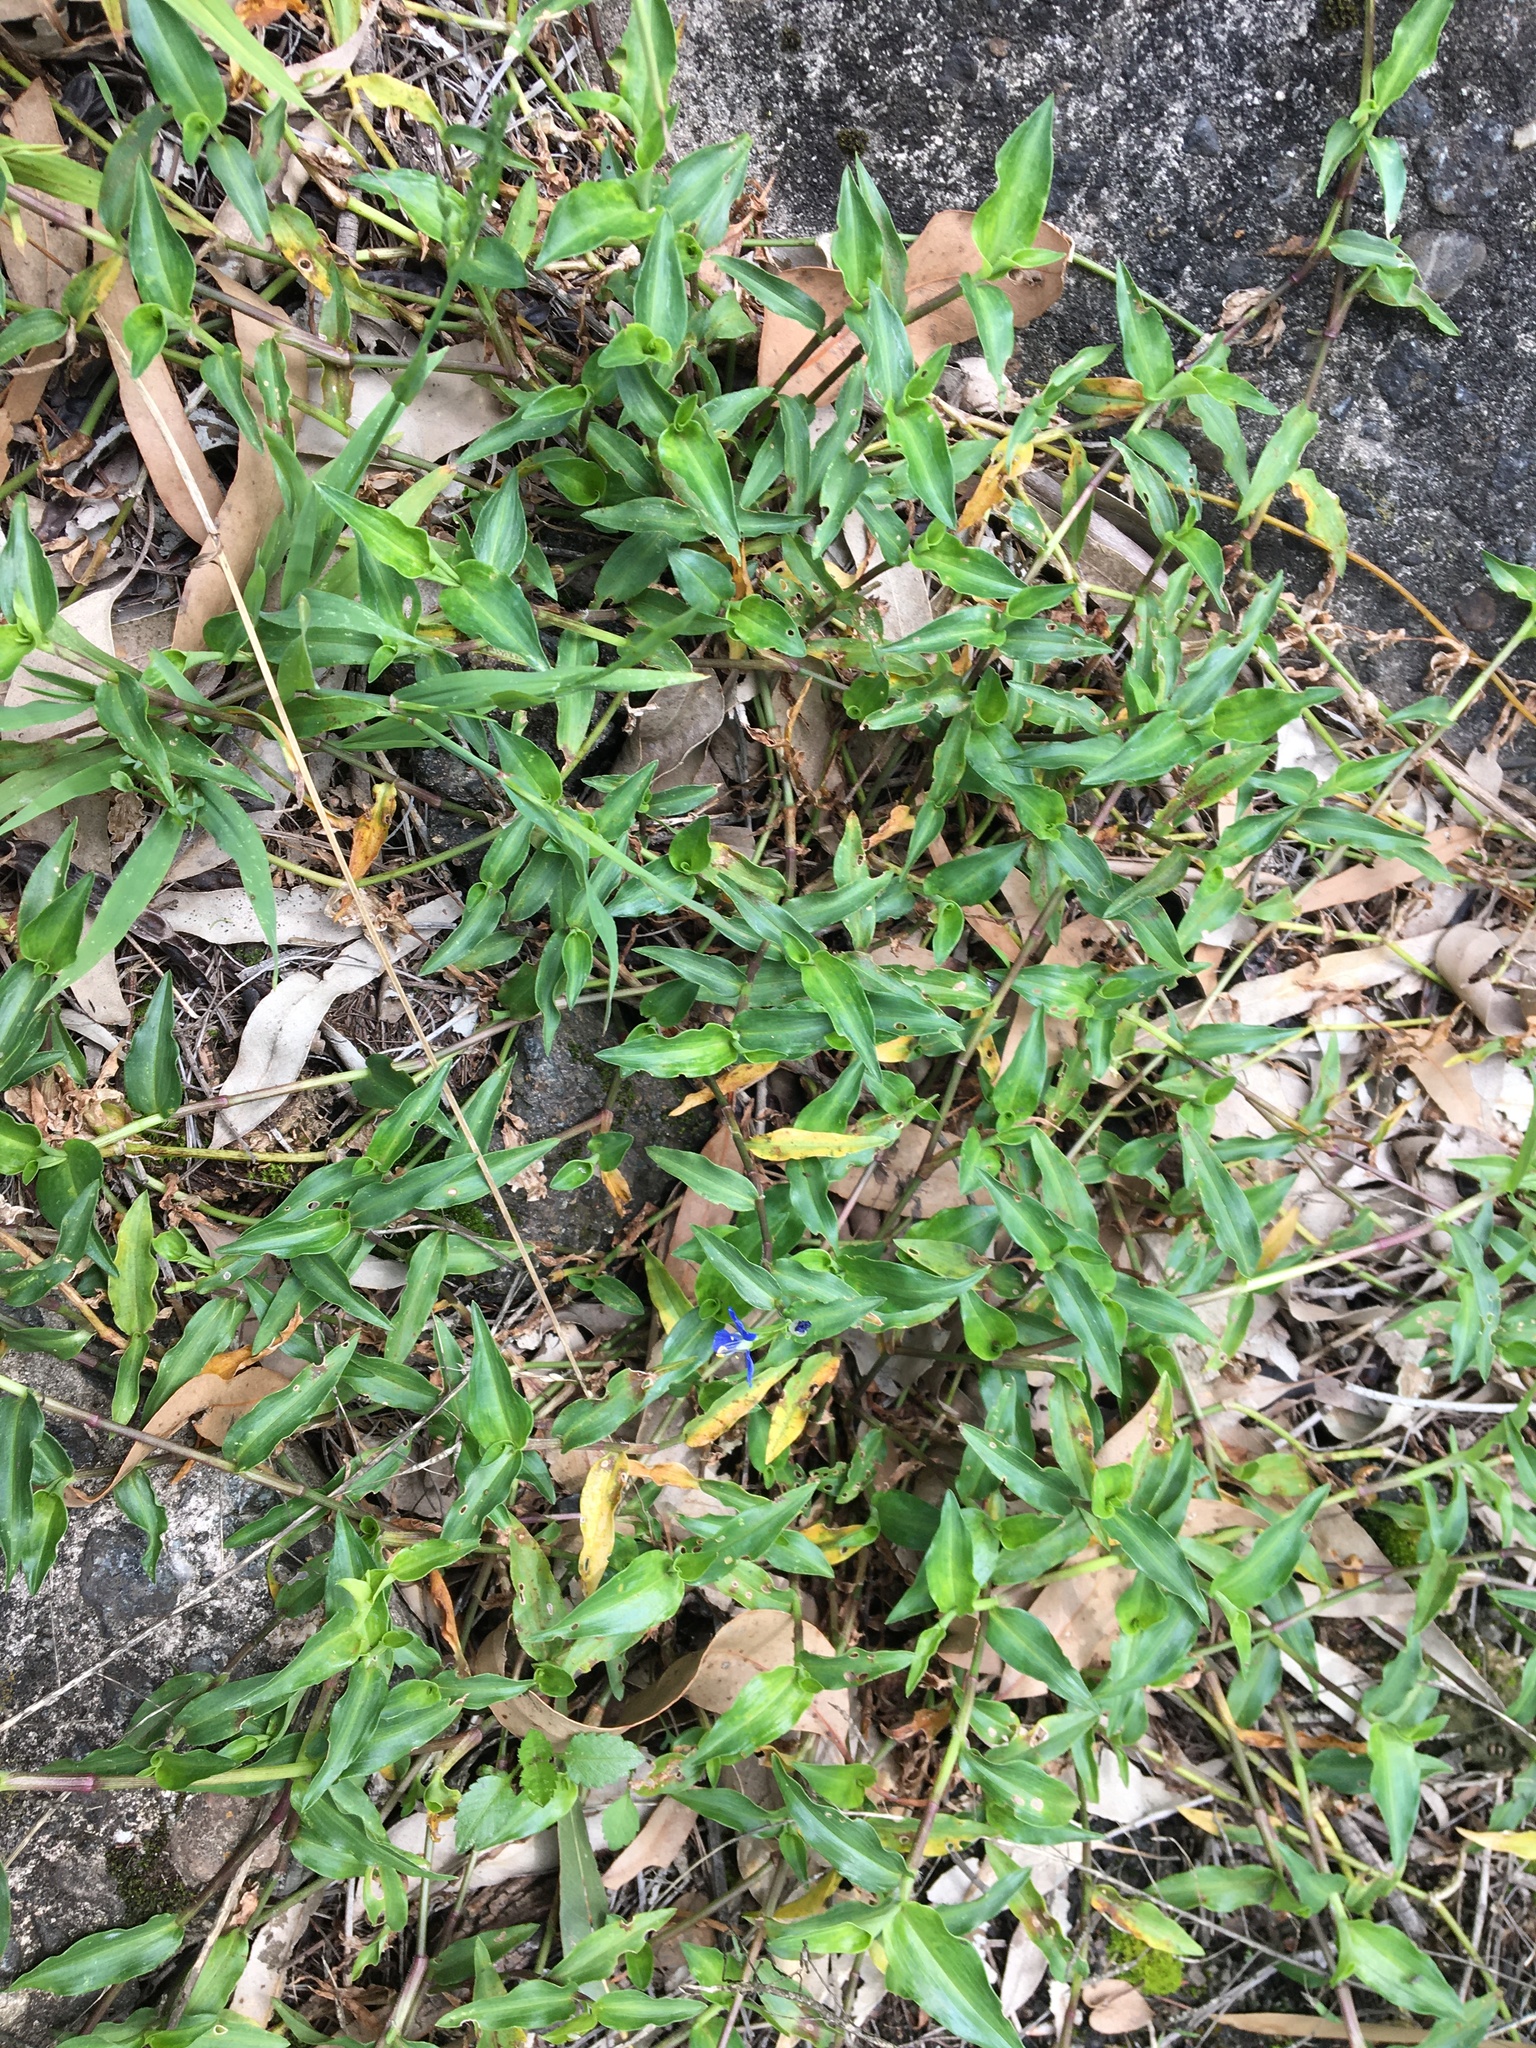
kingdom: Plantae
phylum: Tracheophyta
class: Liliopsida
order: Commelinales
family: Commelinaceae
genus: Commelina
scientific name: Commelina cyanea
